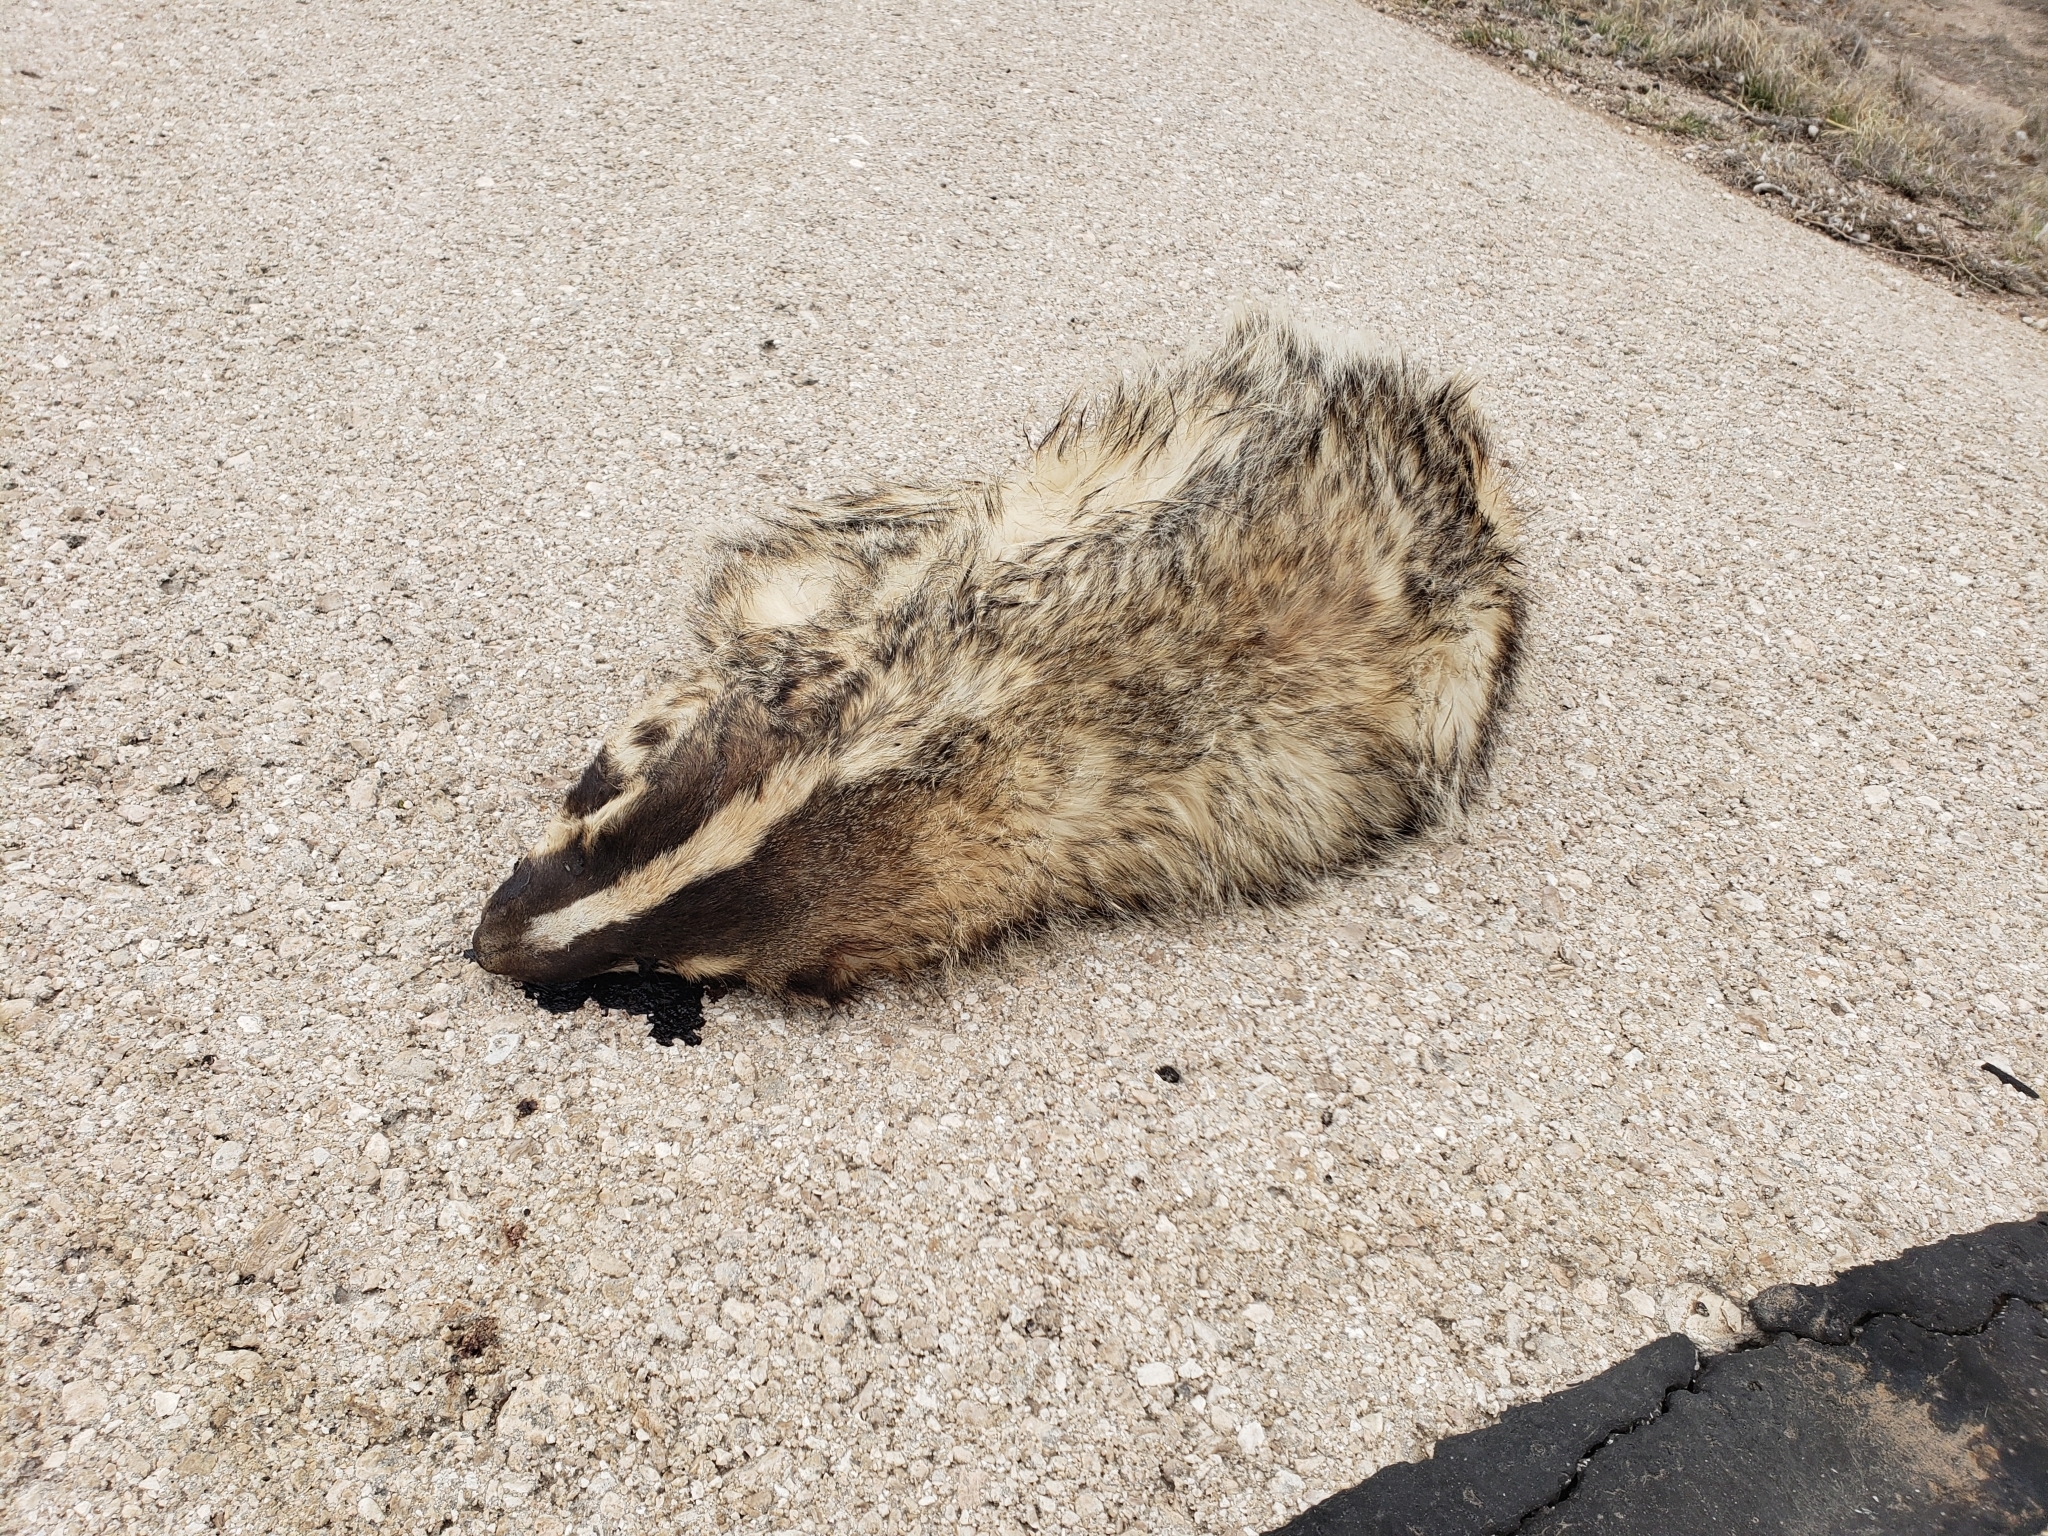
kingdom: Animalia
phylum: Chordata
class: Mammalia
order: Carnivora
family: Mustelidae
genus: Taxidea
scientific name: Taxidea taxus
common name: American badger
